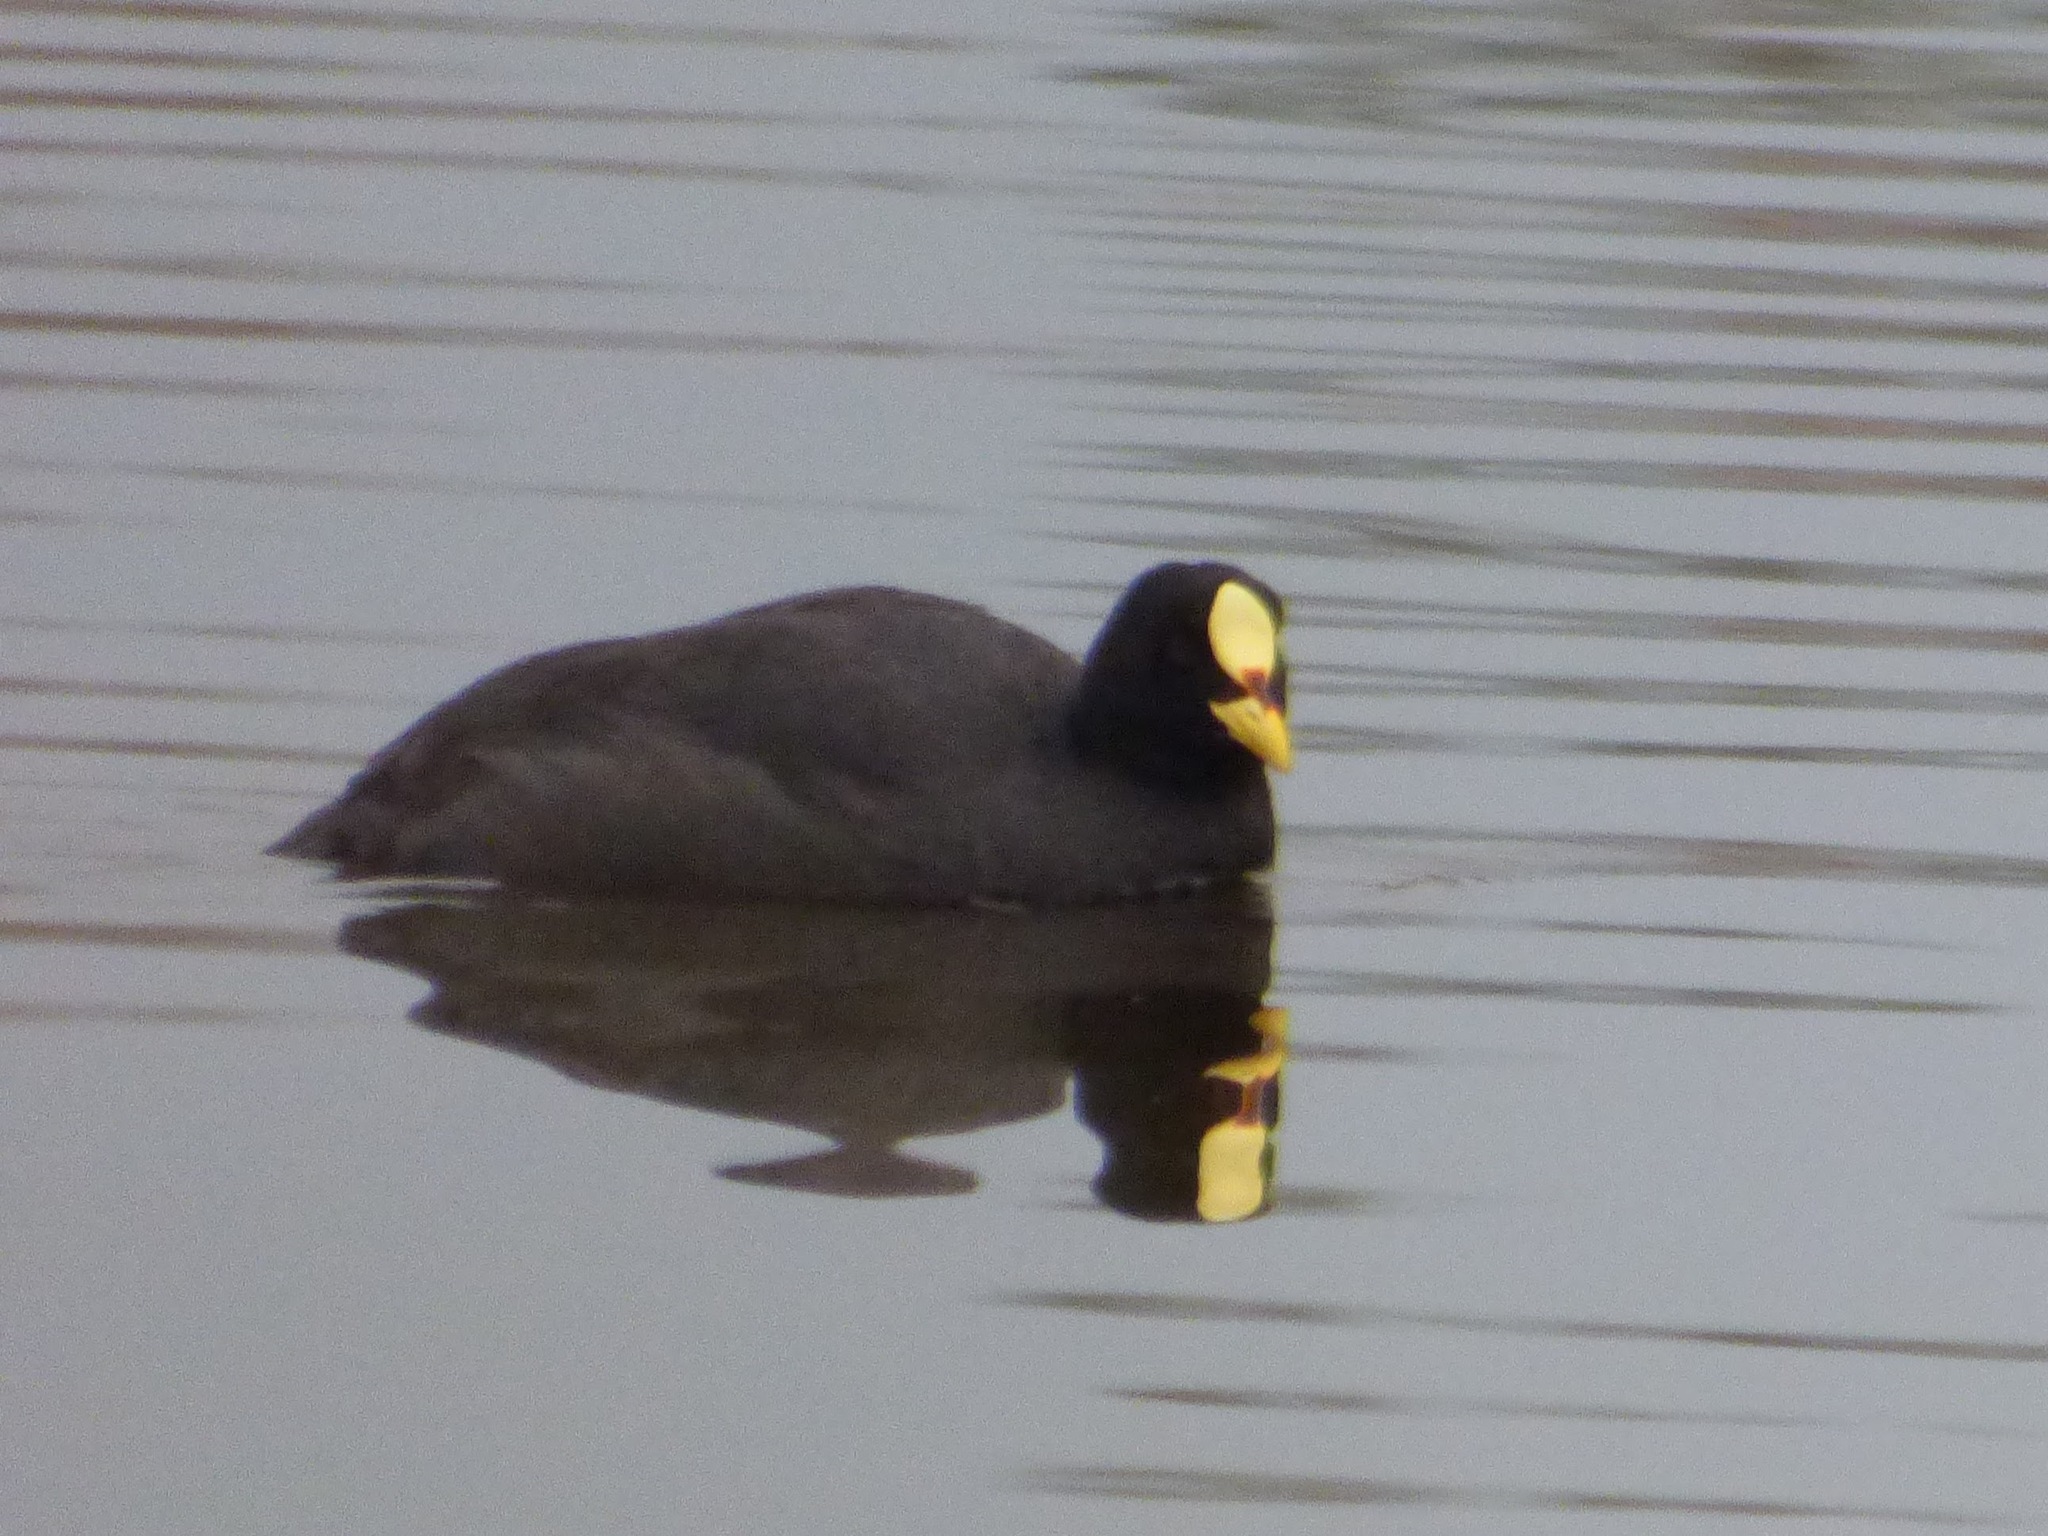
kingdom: Animalia
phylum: Chordata
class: Aves
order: Gruiformes
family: Rallidae
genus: Fulica
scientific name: Fulica armillata
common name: Red-gartered coot
